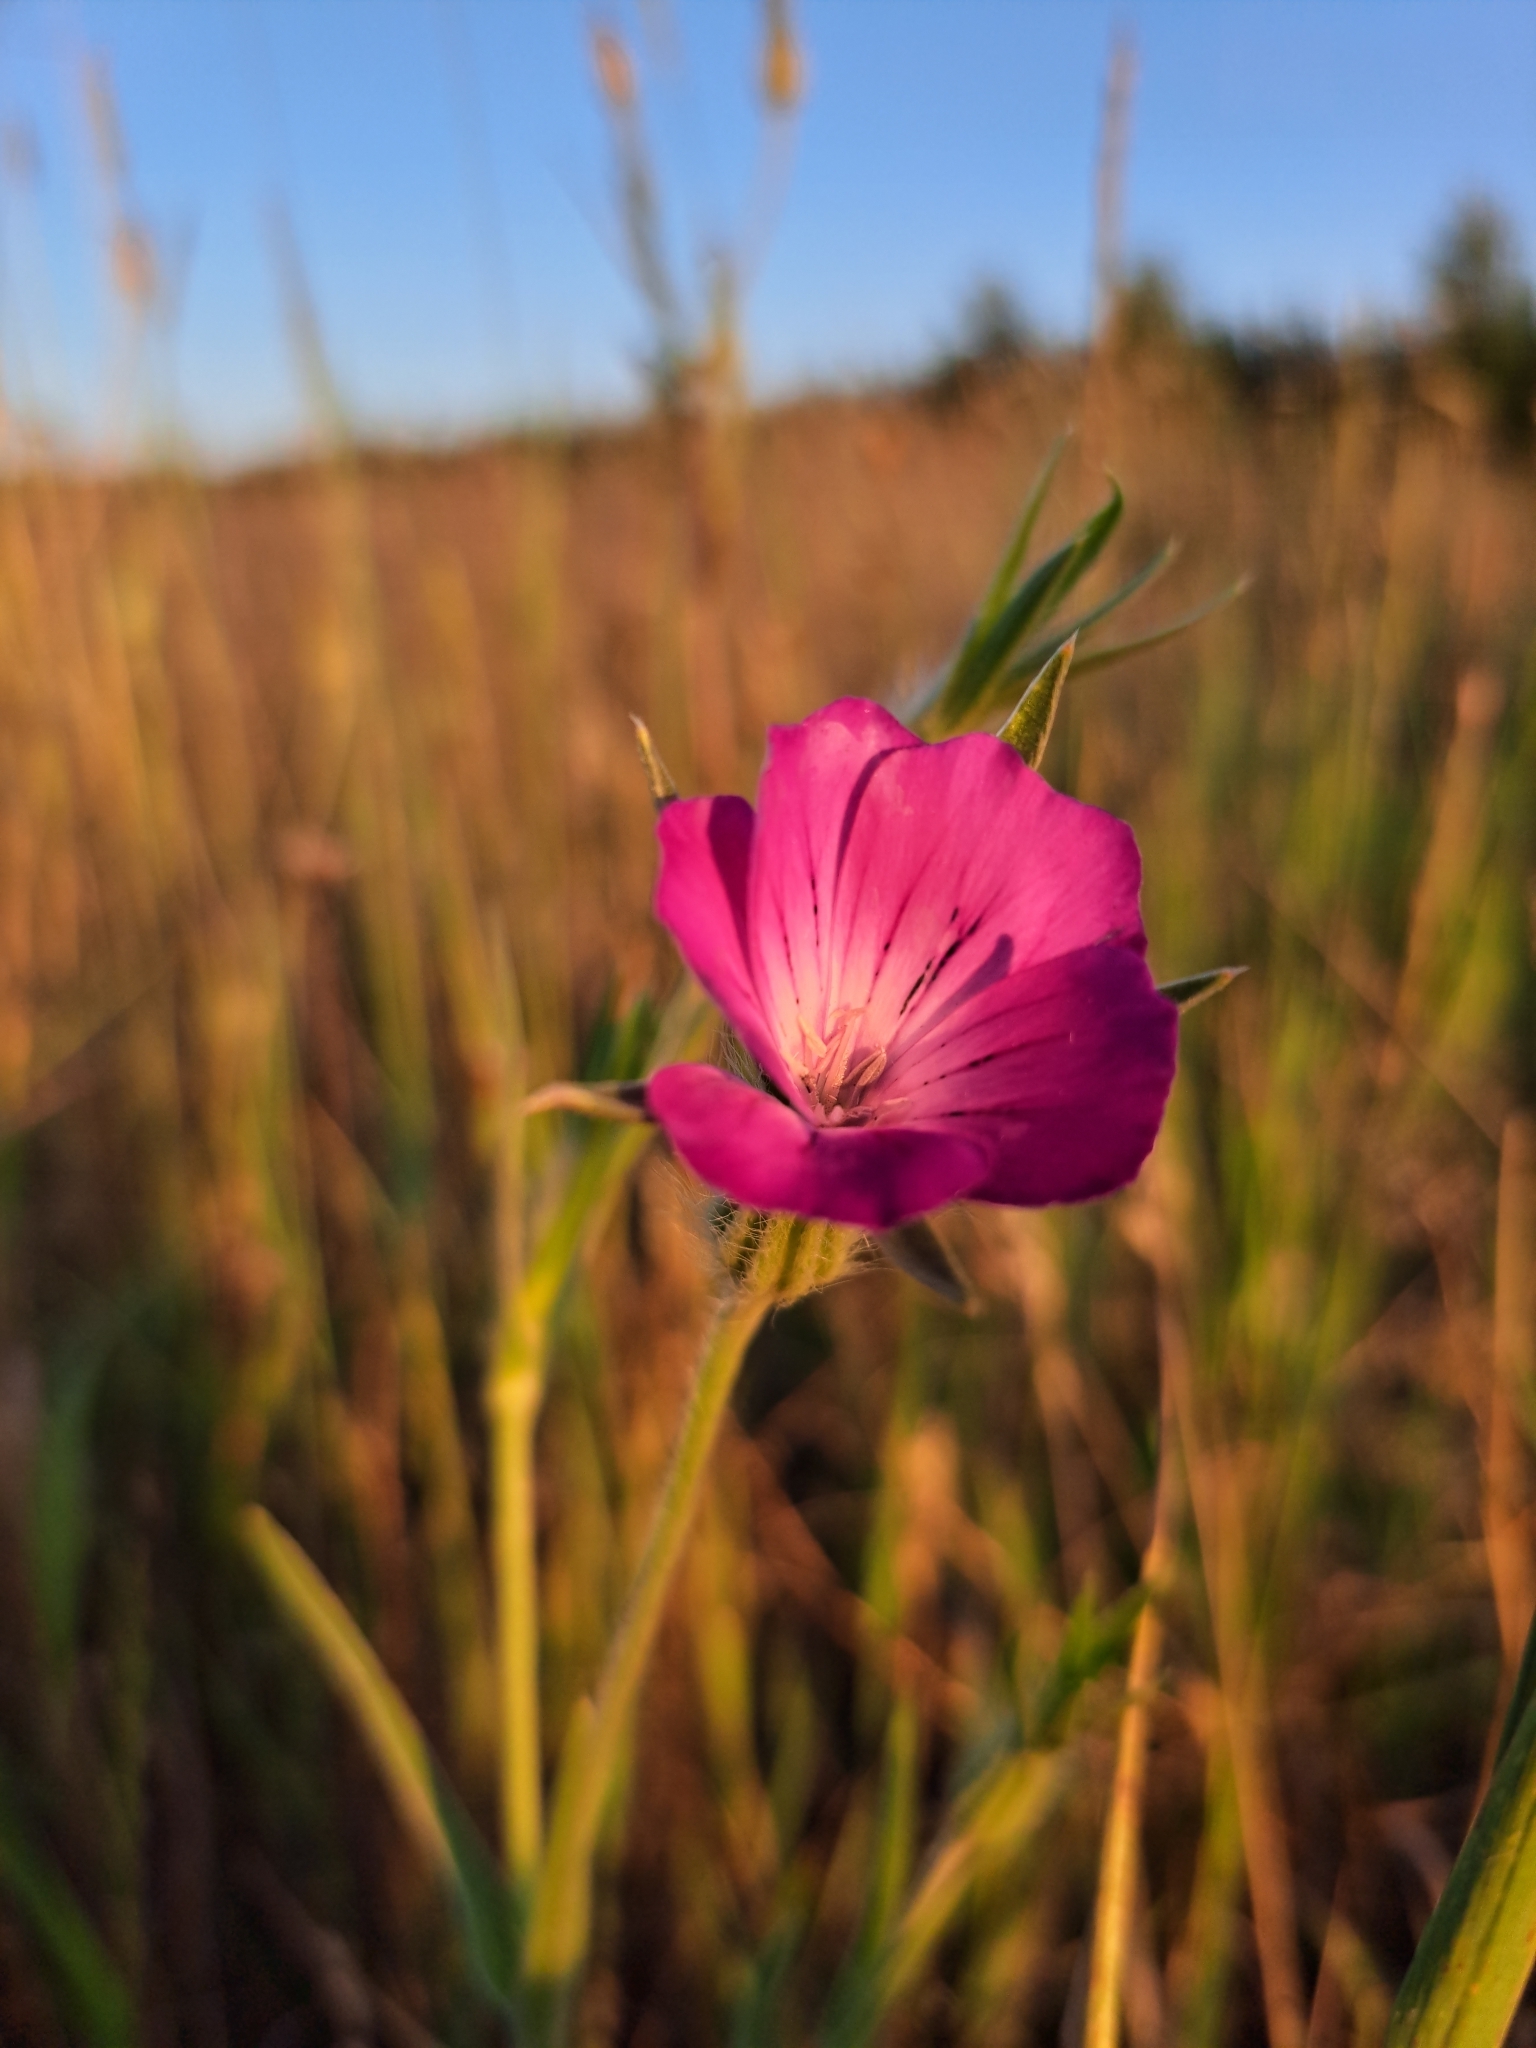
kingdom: Plantae
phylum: Tracheophyta
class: Magnoliopsida
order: Caryophyllales
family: Caryophyllaceae
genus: Agrostemma
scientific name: Agrostemma githago
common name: Common corncockle
